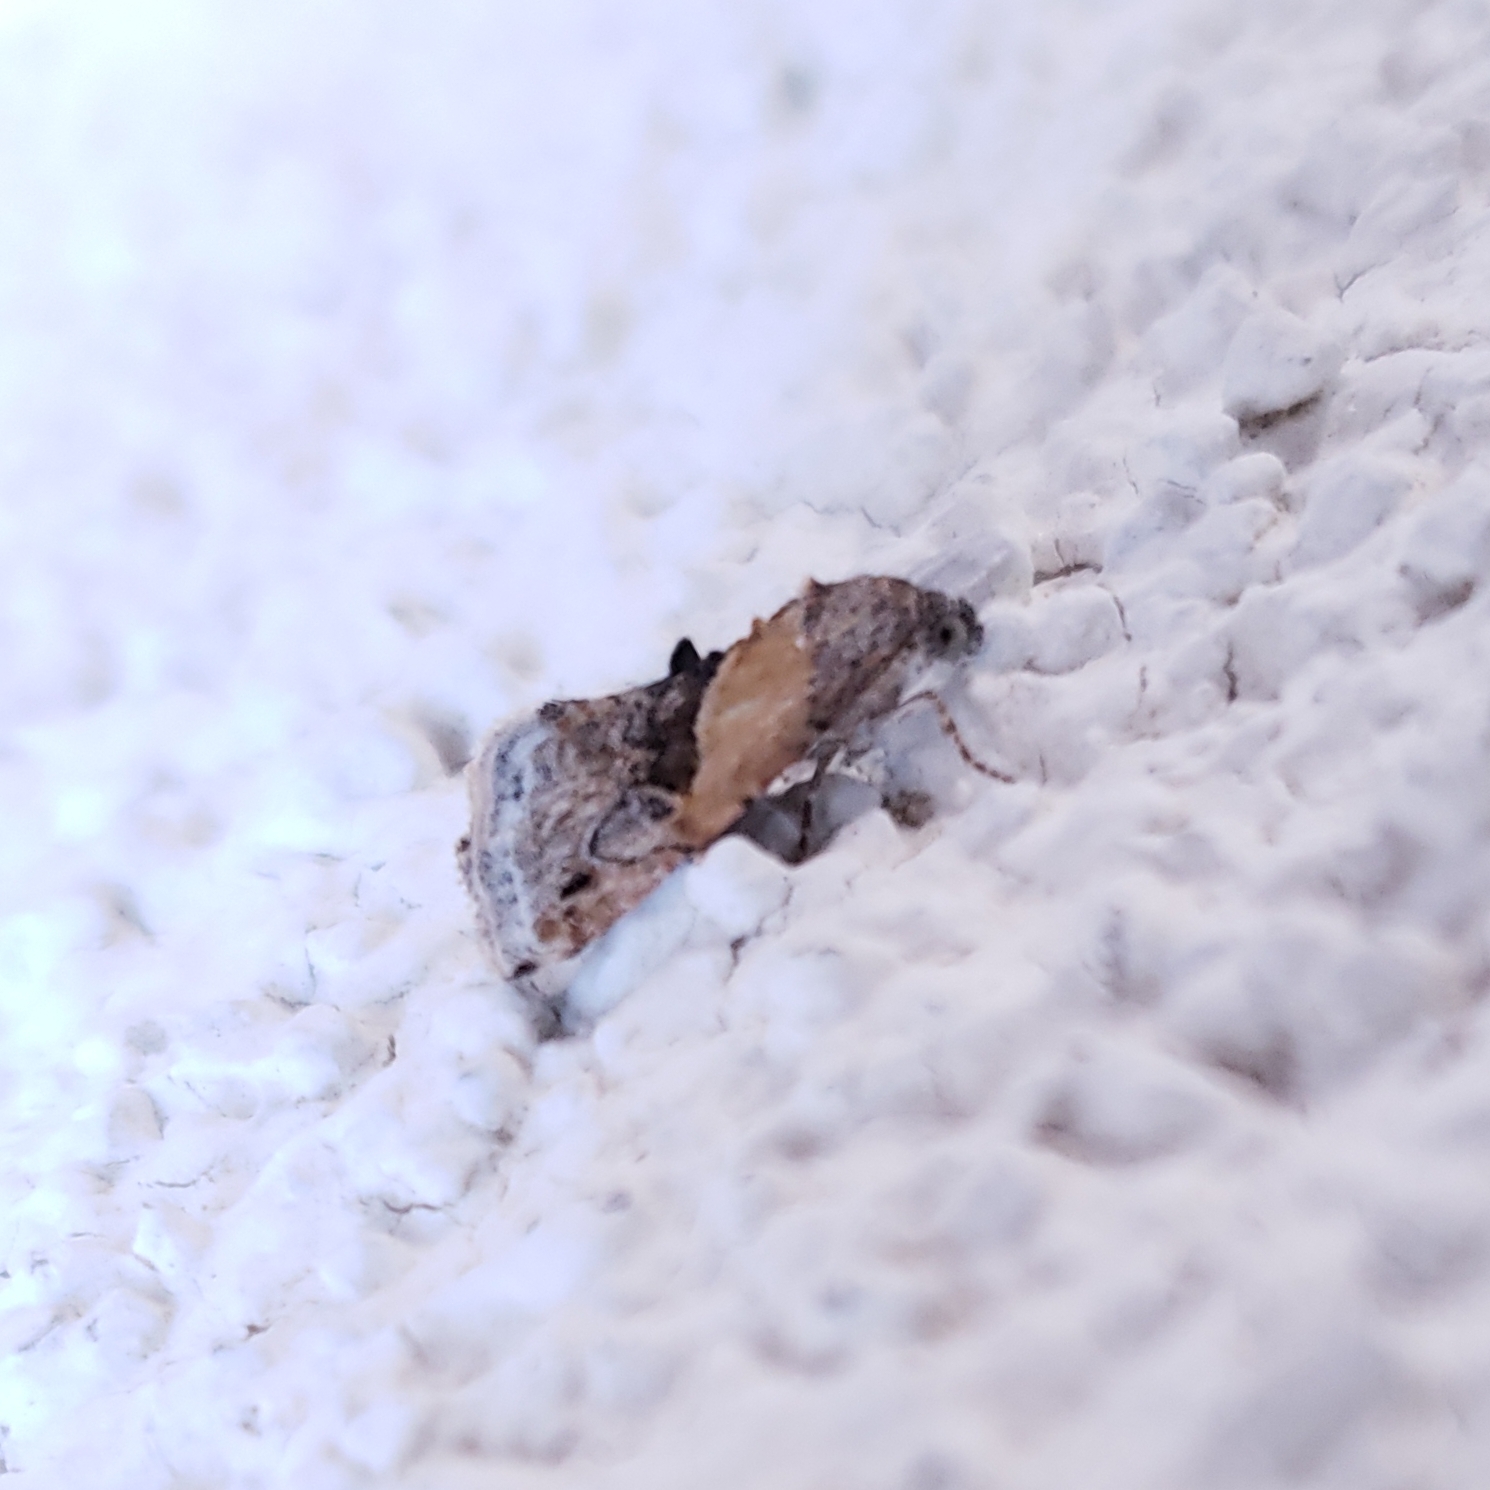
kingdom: Animalia
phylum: Arthropoda
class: Insecta
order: Lepidoptera
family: Noctuidae
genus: Tripudia
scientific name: Tripudia balteata
